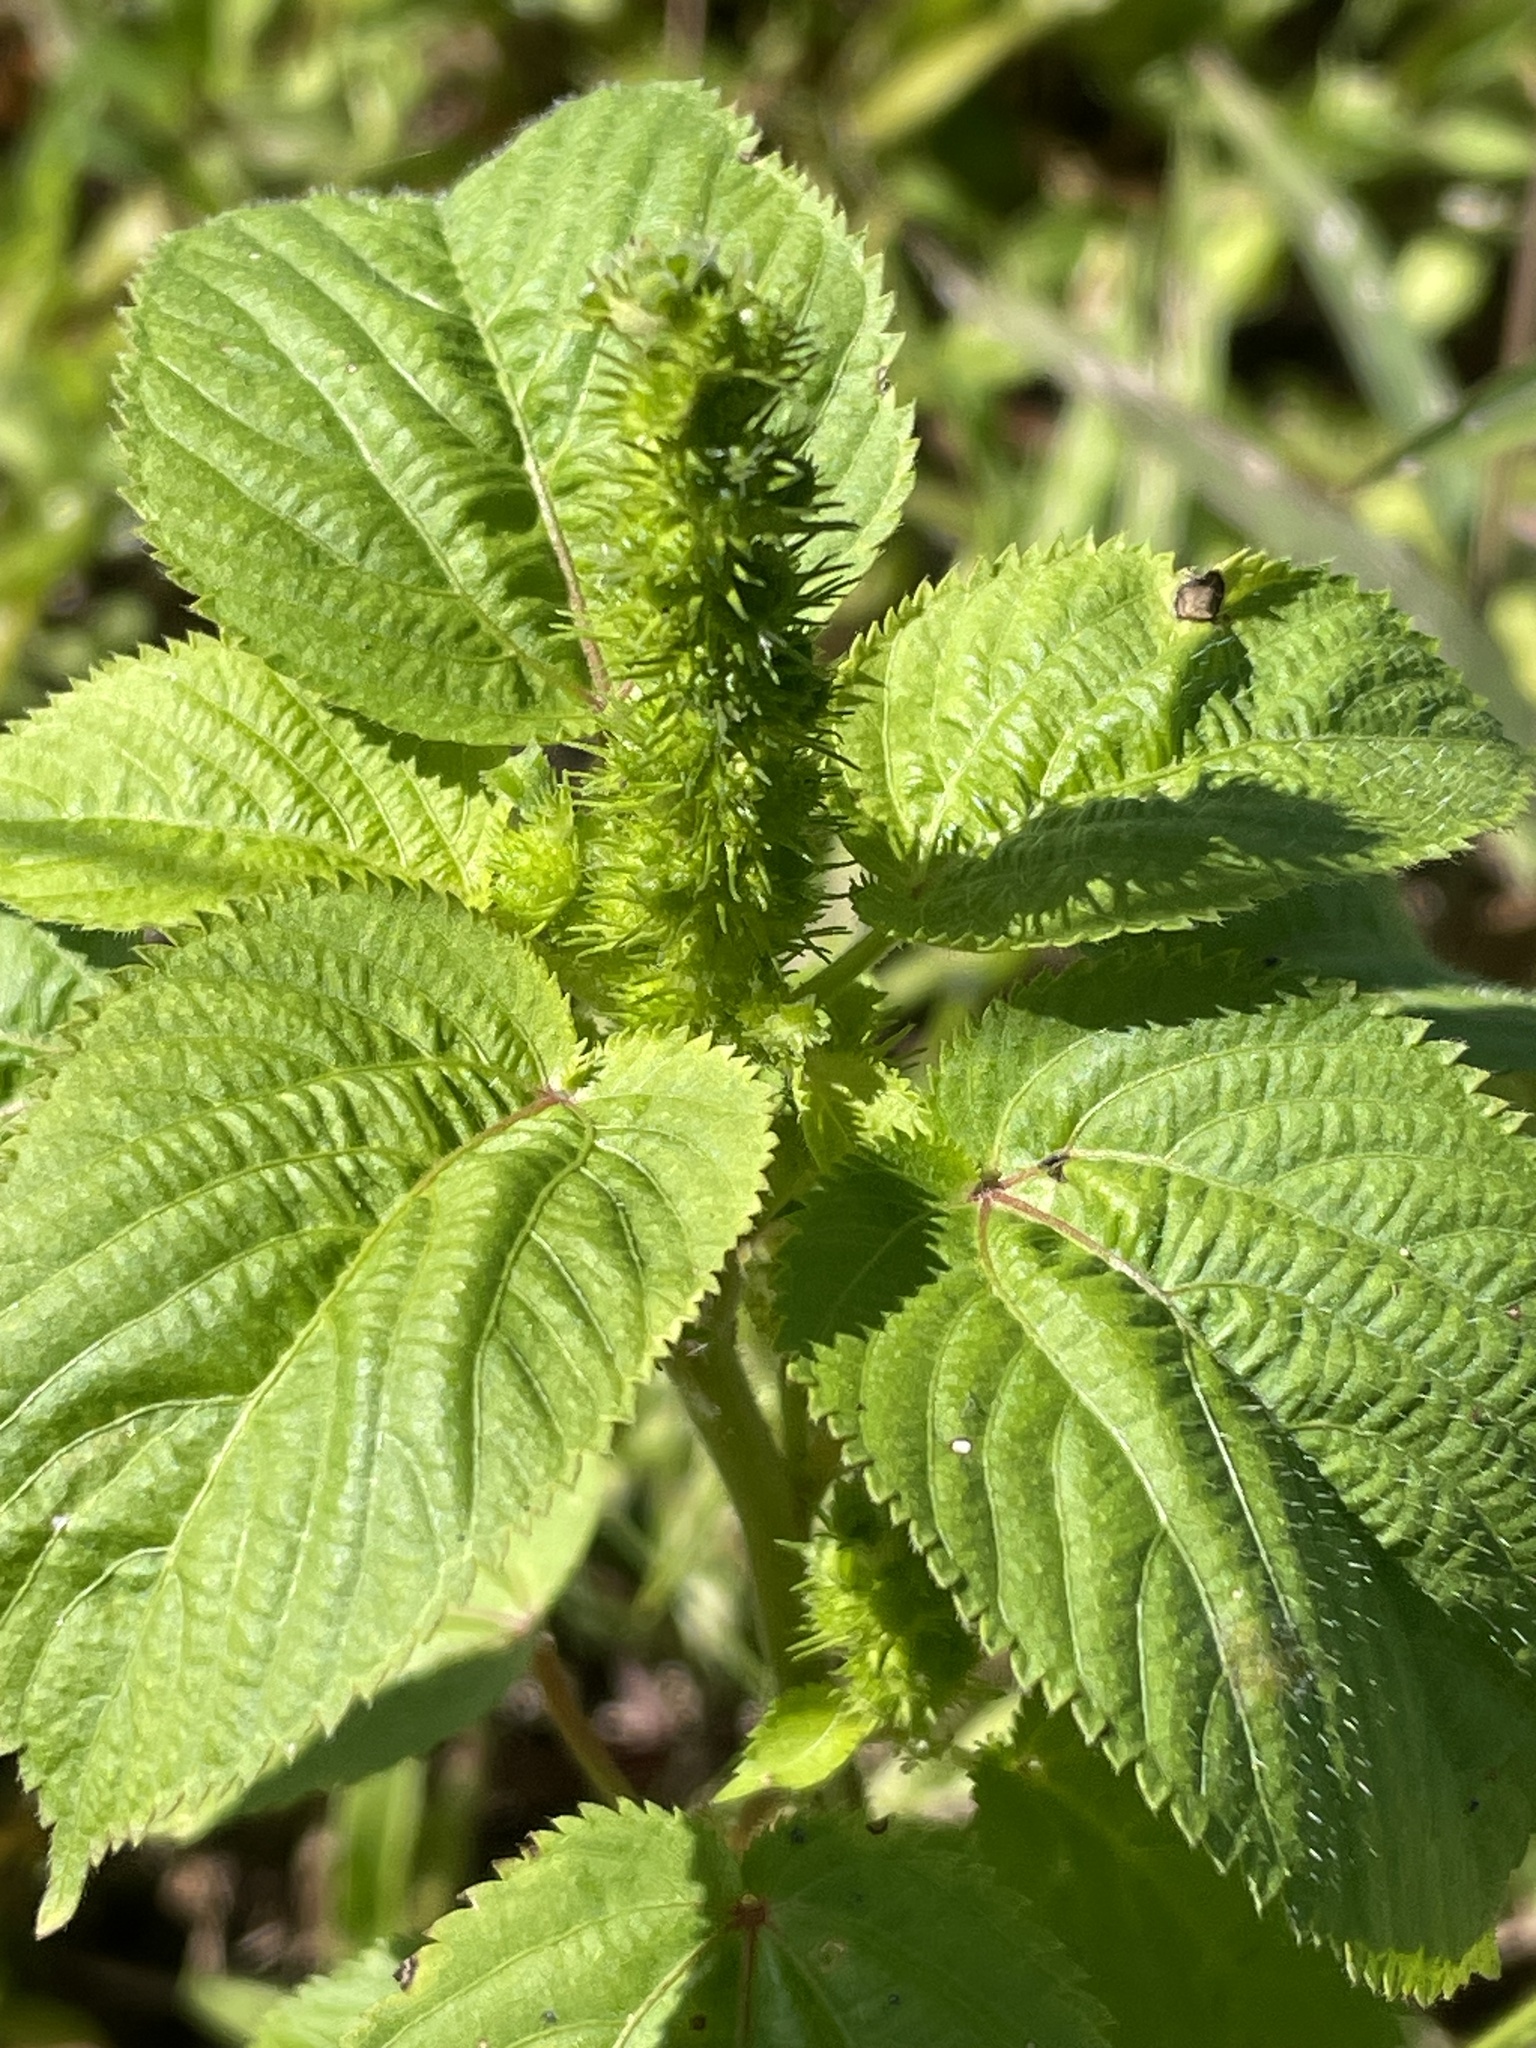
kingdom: Plantae
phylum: Tracheophyta
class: Magnoliopsida
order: Malpighiales
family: Euphorbiaceae
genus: Acalypha
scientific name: Acalypha ostryifolia
